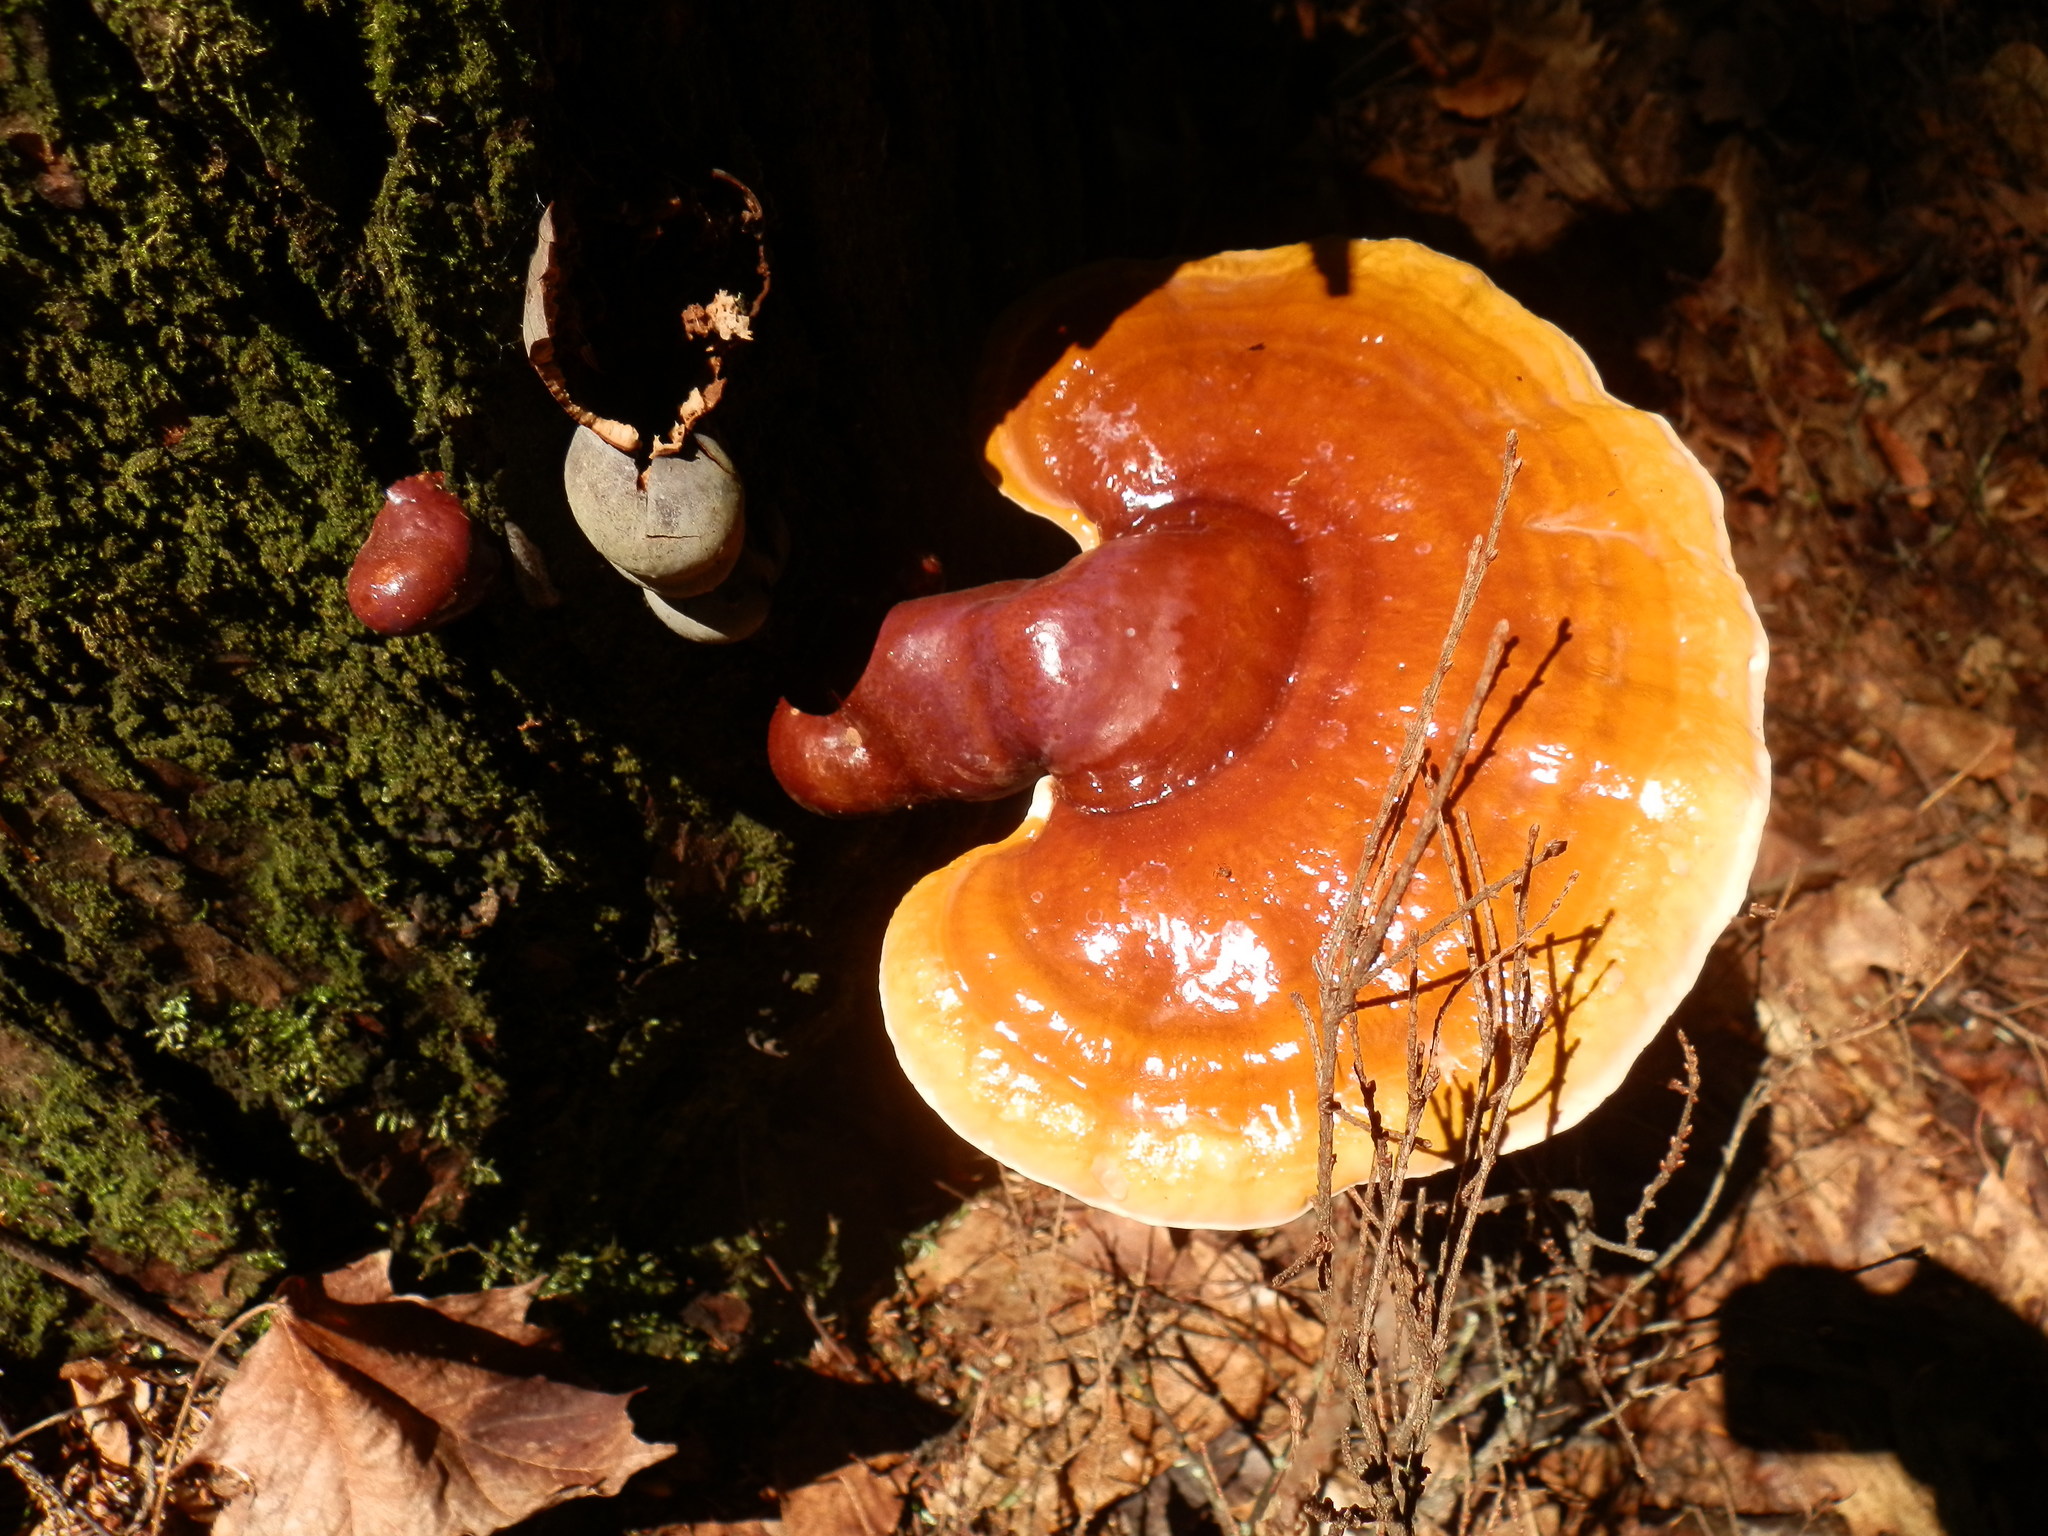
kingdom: Fungi
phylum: Basidiomycota
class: Agaricomycetes
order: Polyporales
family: Polyporaceae
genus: Ganoderma
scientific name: Ganoderma tsugae
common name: Hemlock varnish shelf
